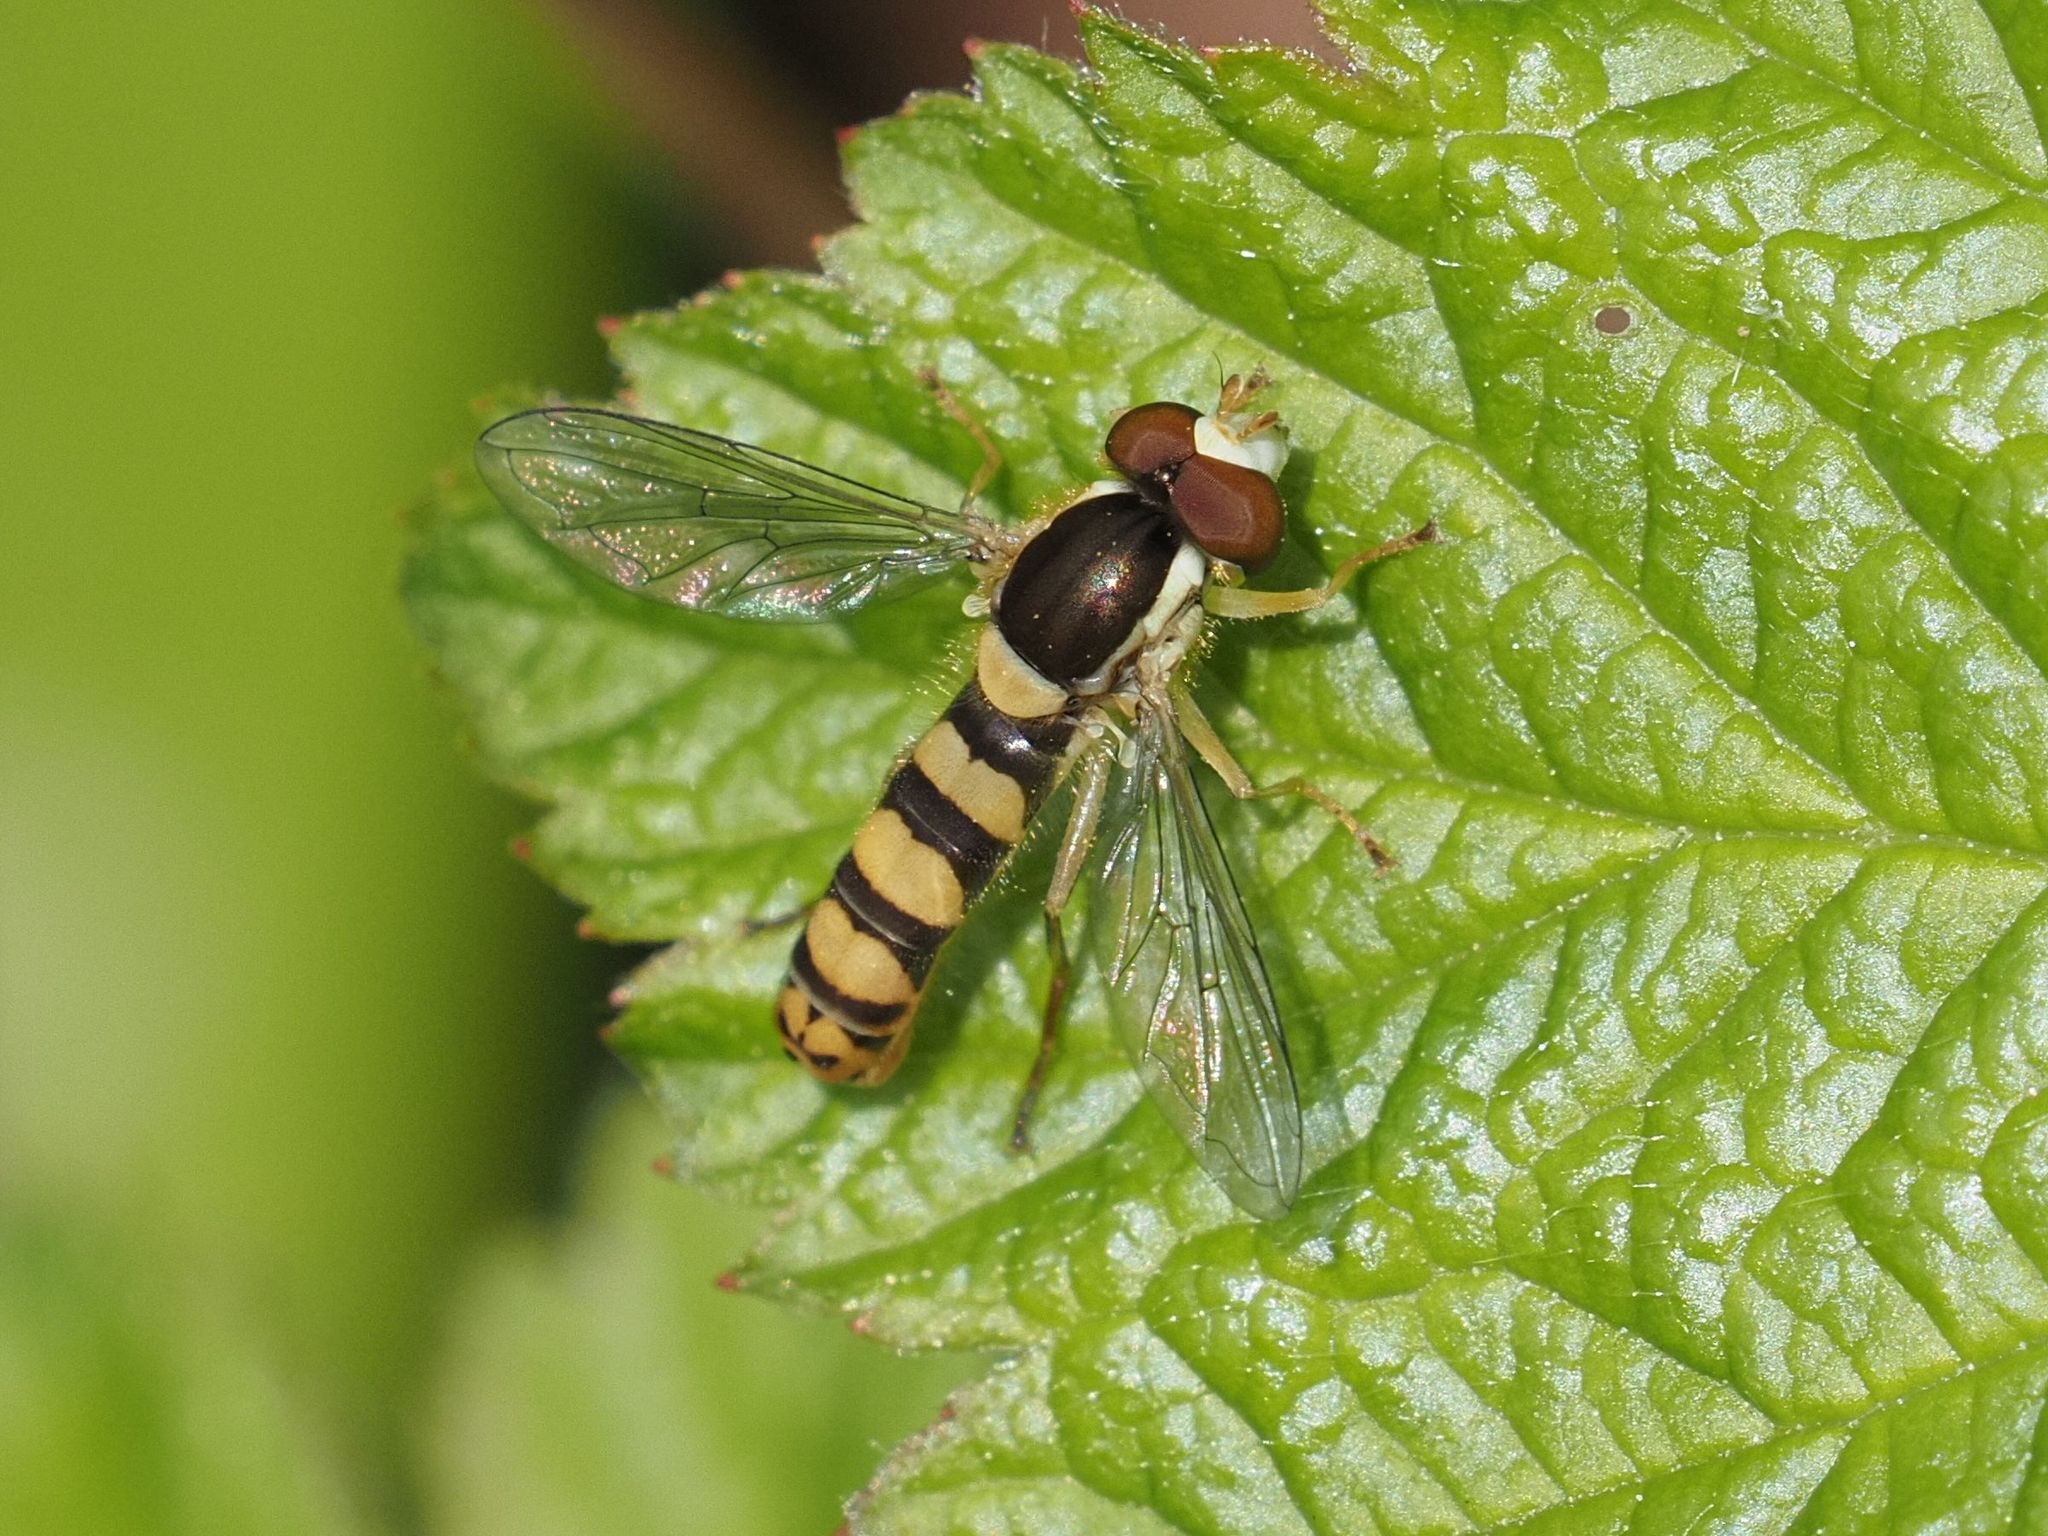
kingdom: Animalia
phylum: Arthropoda
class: Insecta
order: Diptera
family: Syrphidae
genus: Sphaerophoria
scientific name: Sphaerophoria
